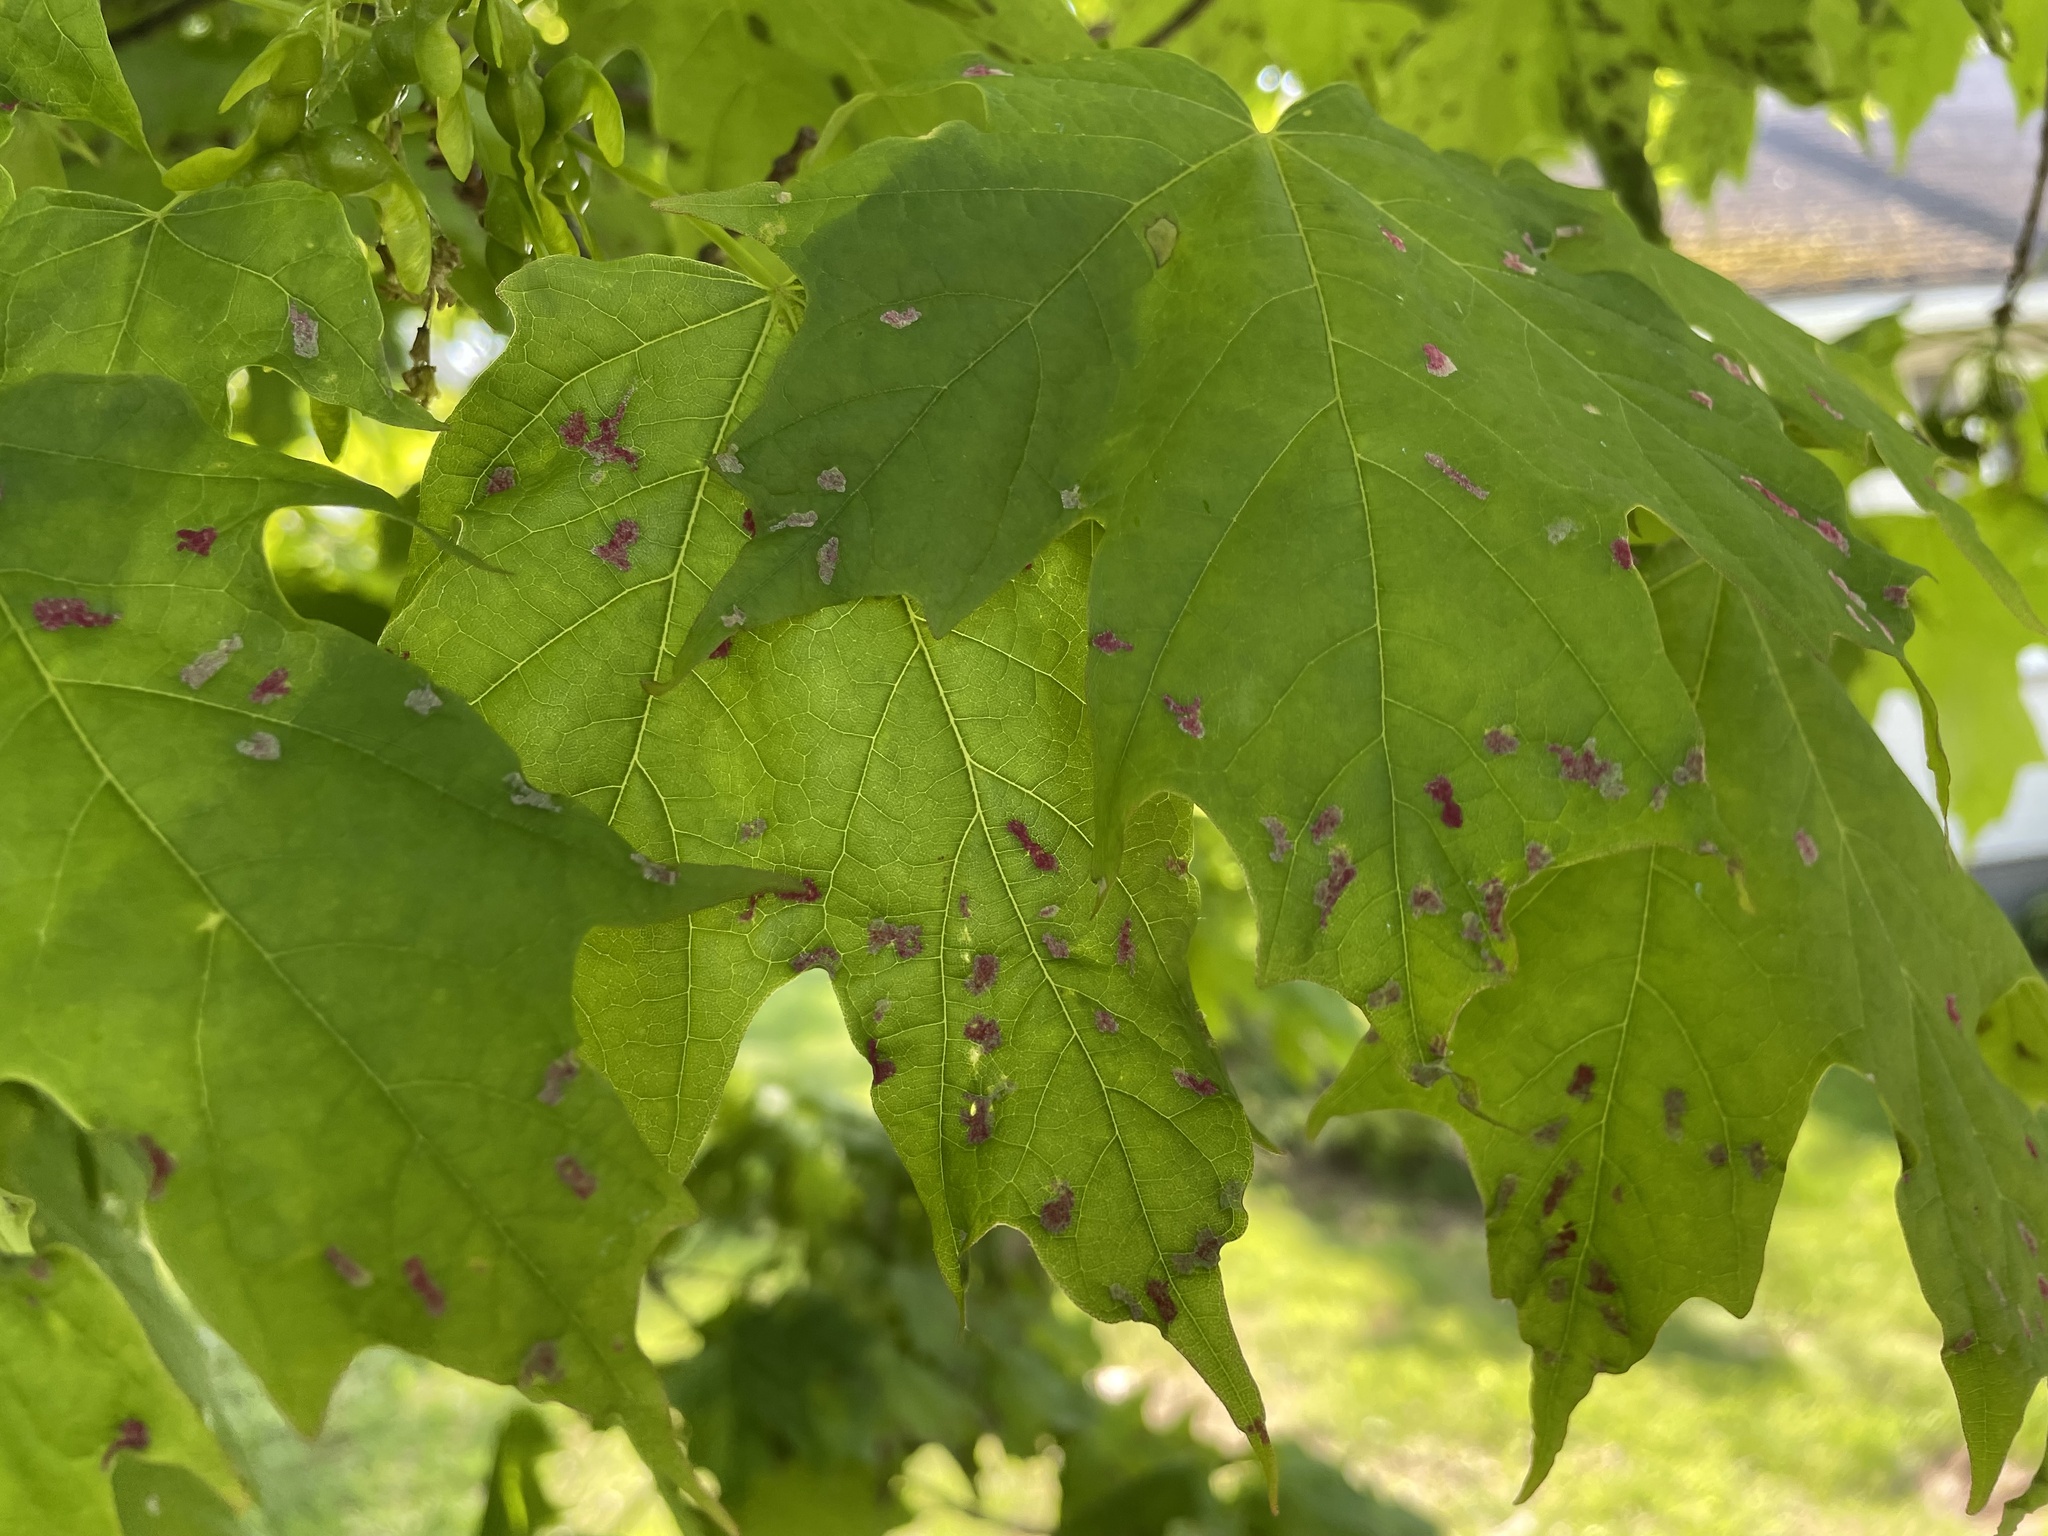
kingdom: Animalia
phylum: Arthropoda
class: Arachnida
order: Trombidiformes
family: Eriophyidae
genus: Aceria
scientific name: Aceria
